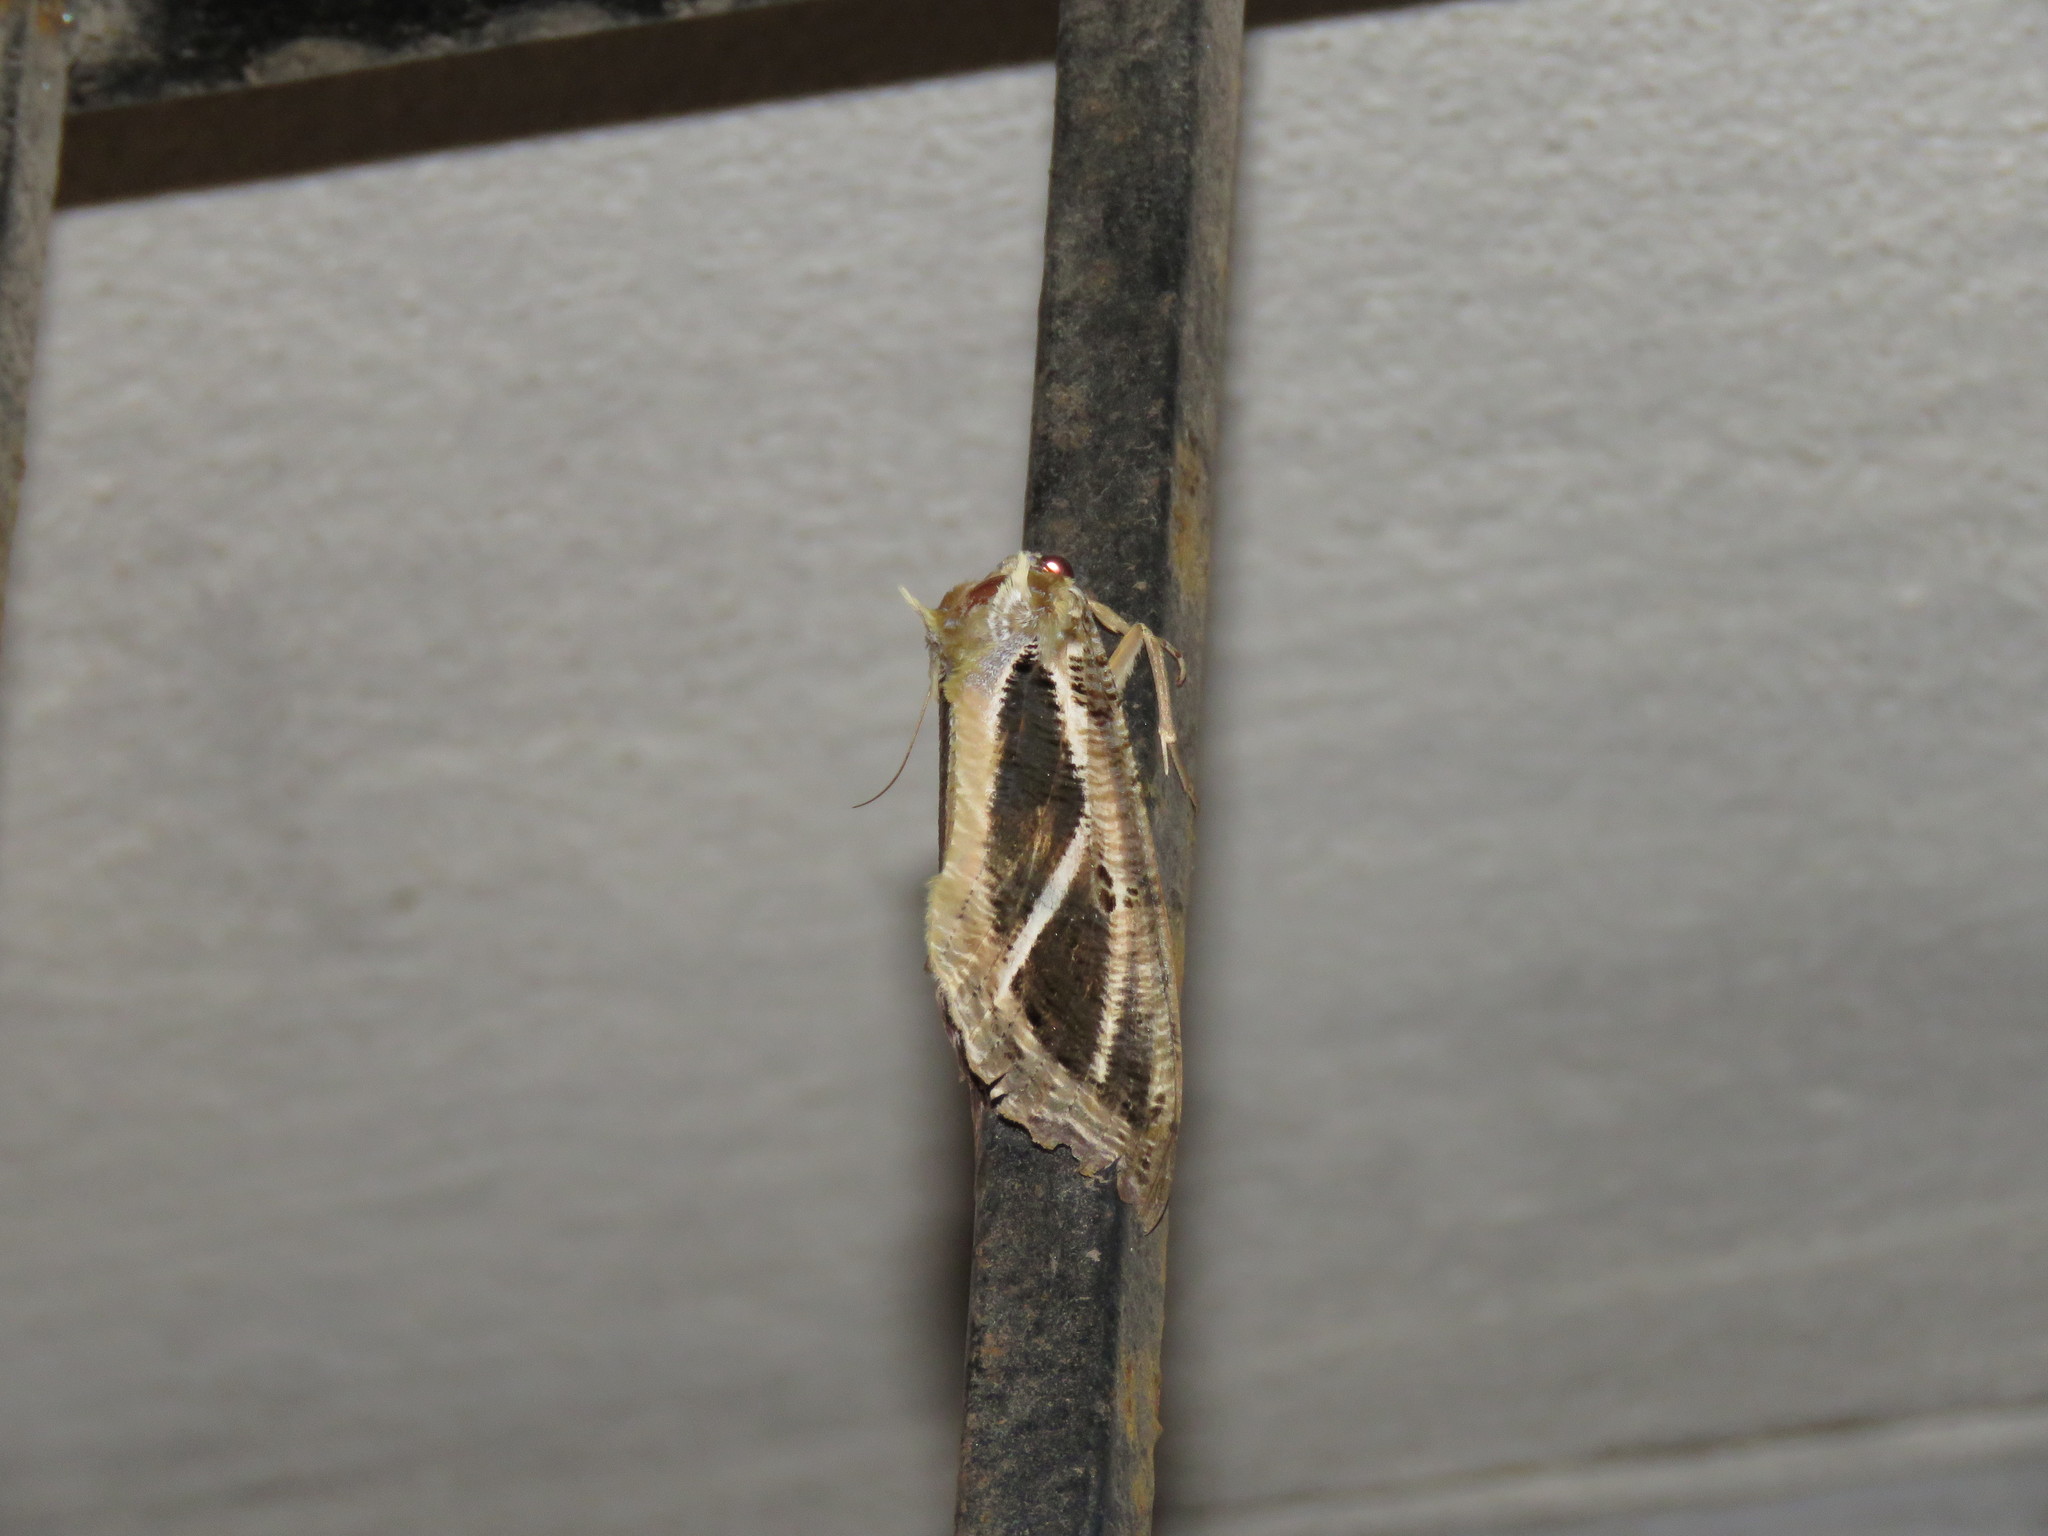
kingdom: Animalia
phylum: Arthropoda
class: Insecta
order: Lepidoptera
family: Erebidae
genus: Eudocima
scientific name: Eudocima materna
